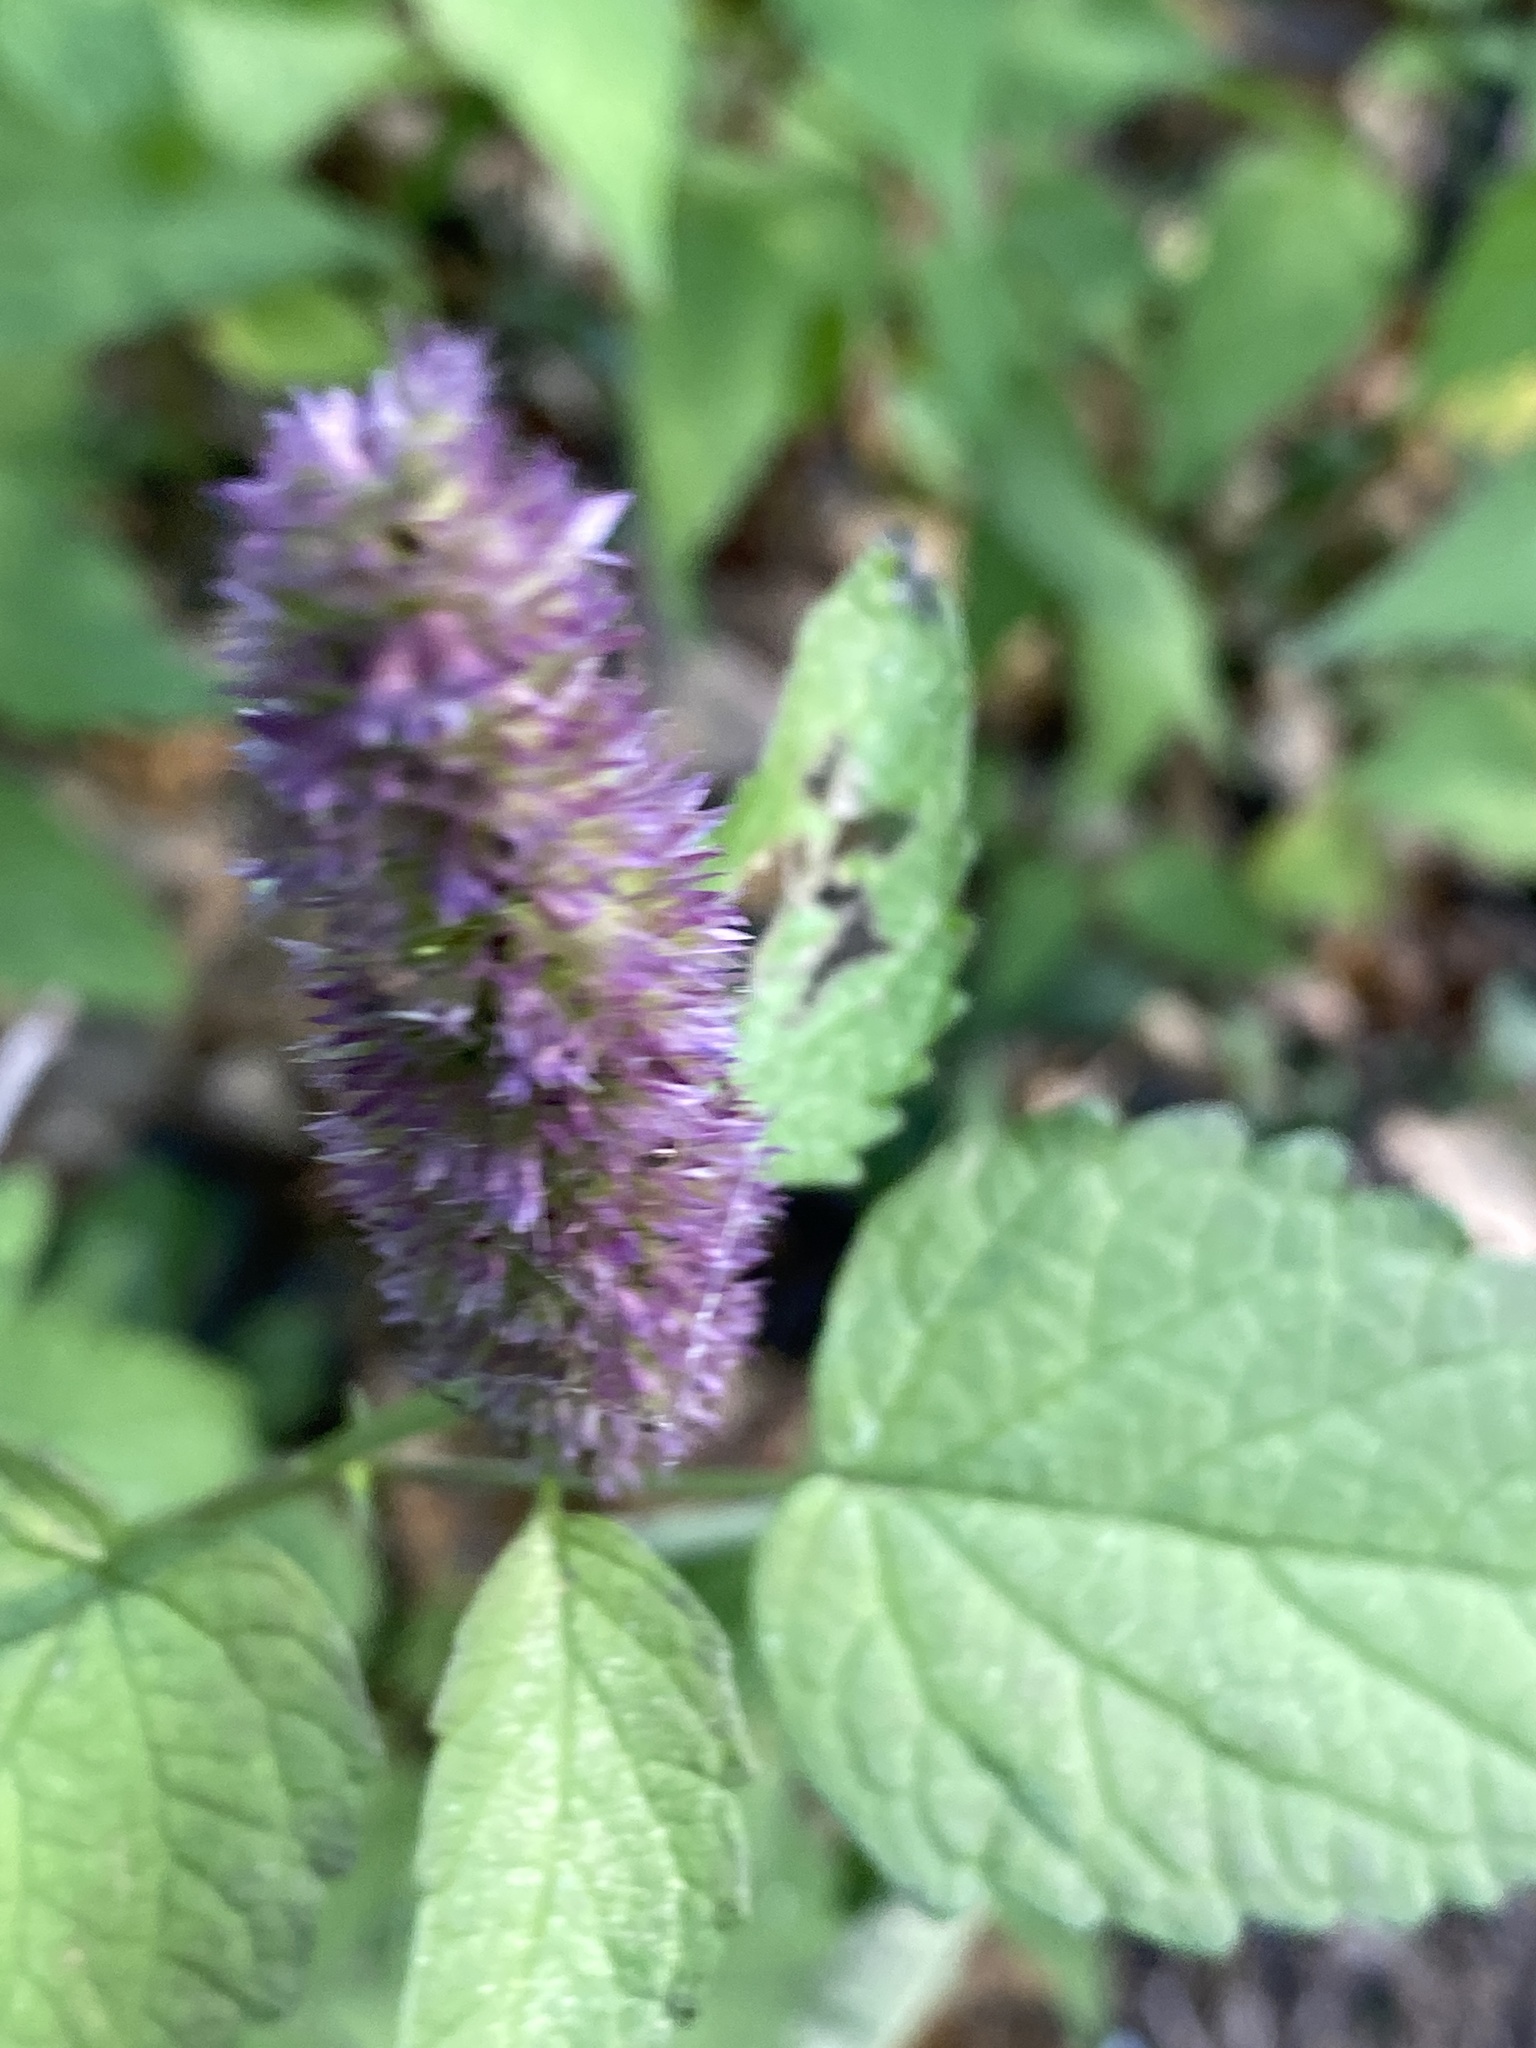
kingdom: Plantae
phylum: Tracheophyta
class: Magnoliopsida
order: Lamiales
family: Lamiaceae
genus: Agastache
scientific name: Agastache foeniculum
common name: Anise hyssop
